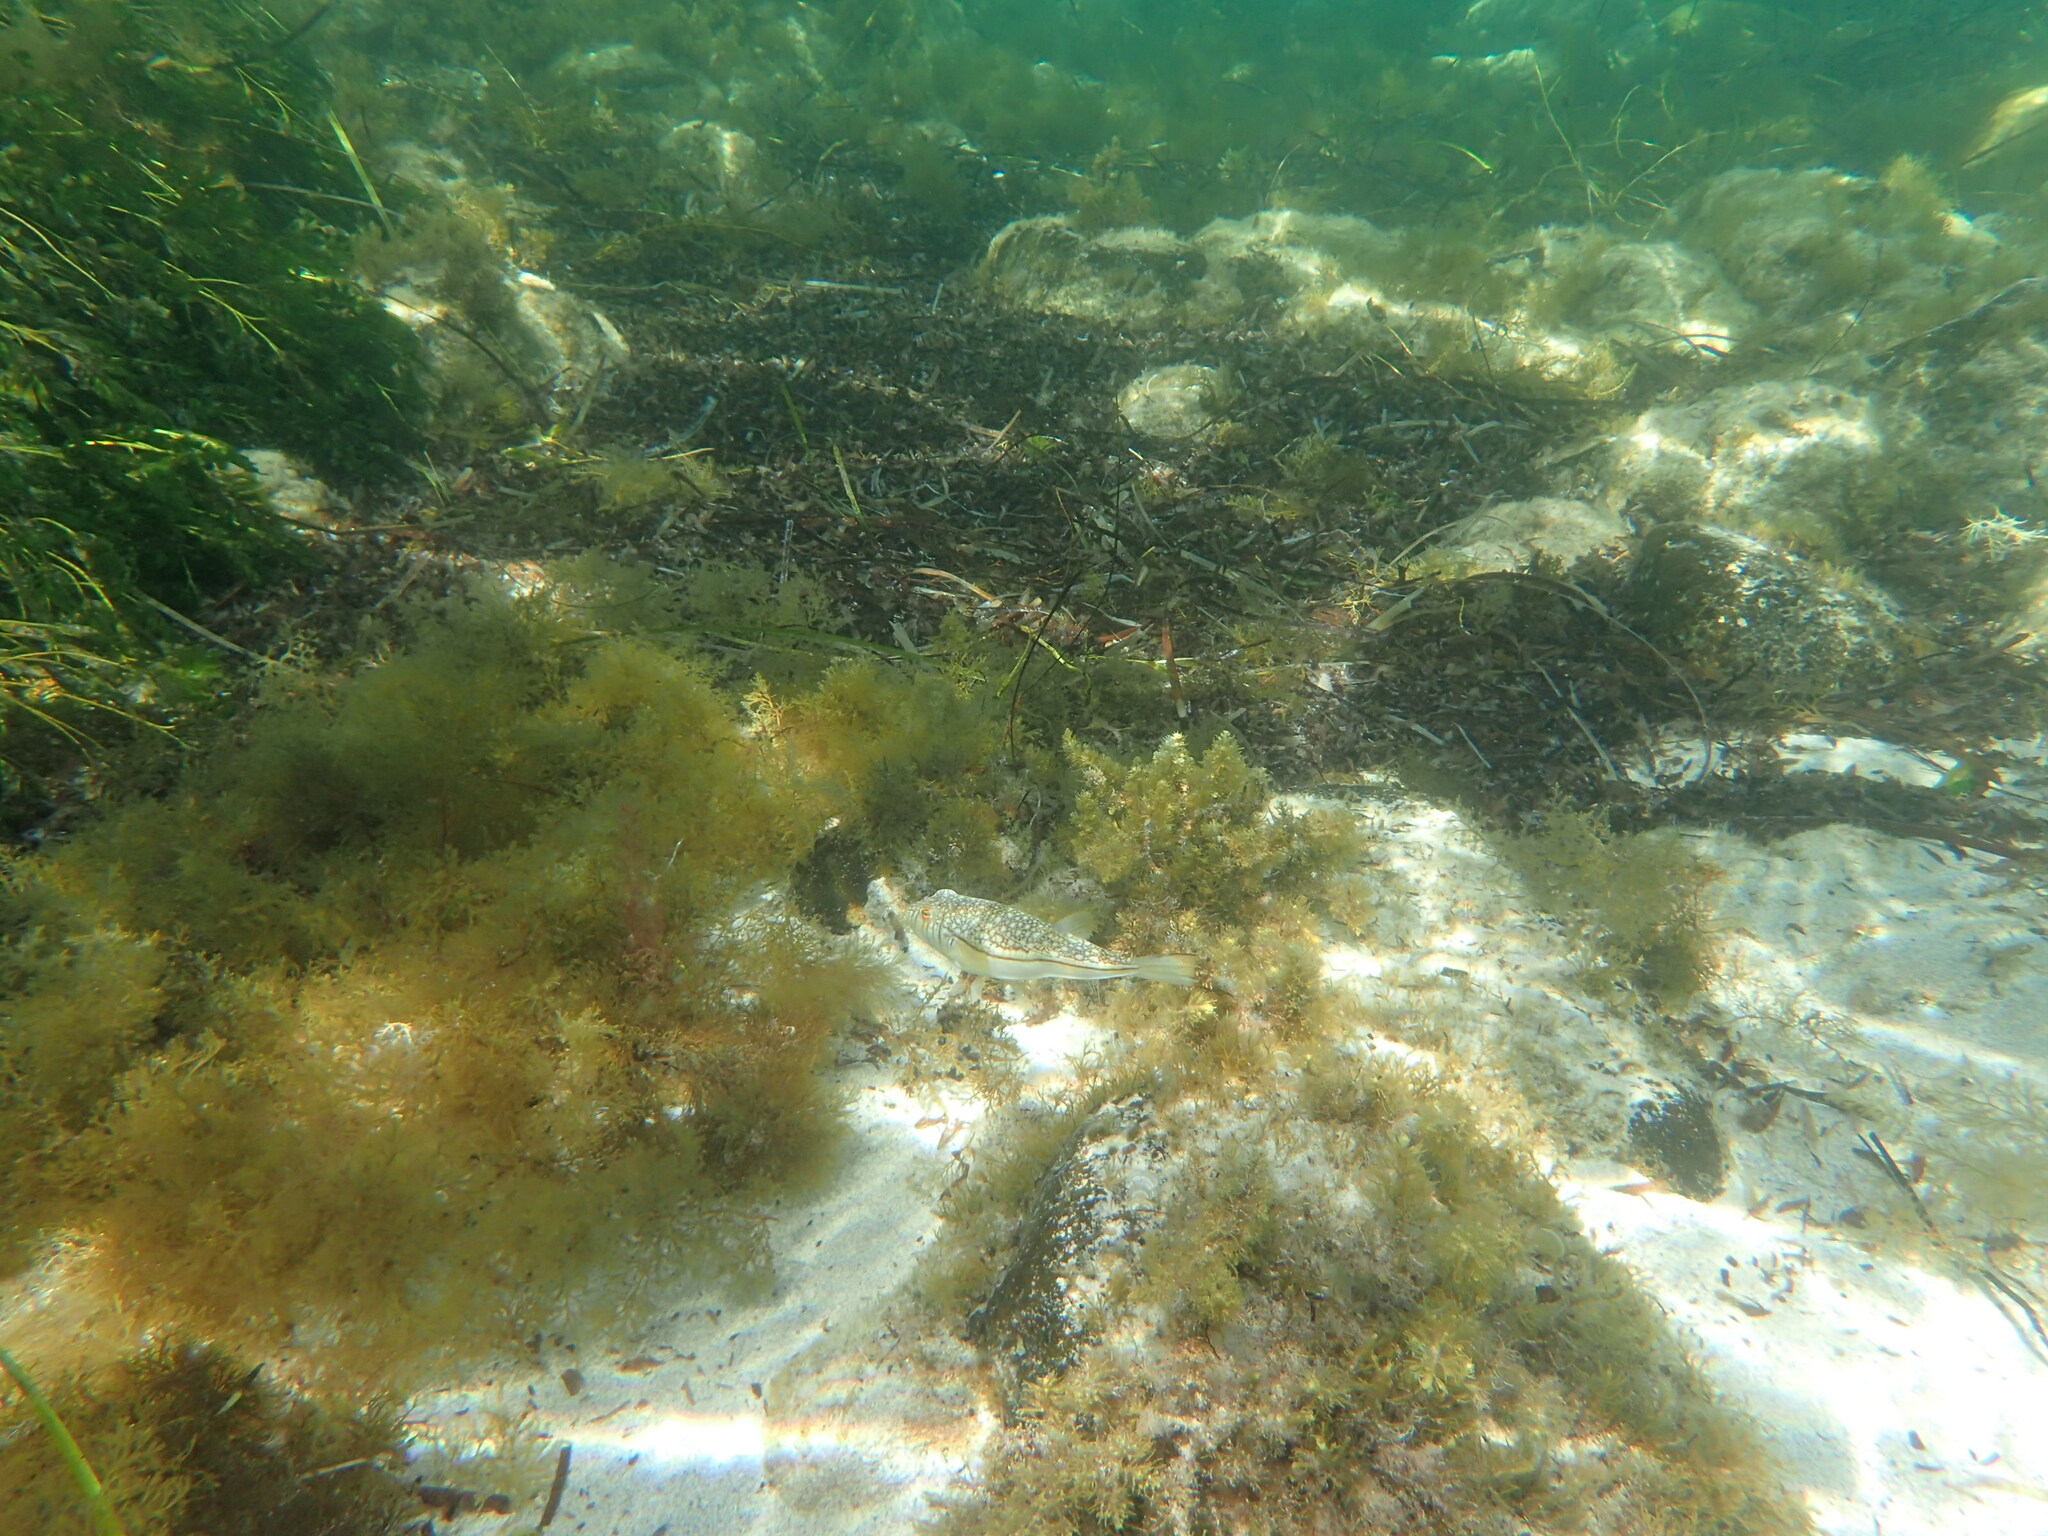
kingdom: Animalia
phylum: Chordata
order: Tetraodontiformes
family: Tetraodontidae
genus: Torquigener
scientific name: Torquigener pleurogramma
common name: Banded toadfish
